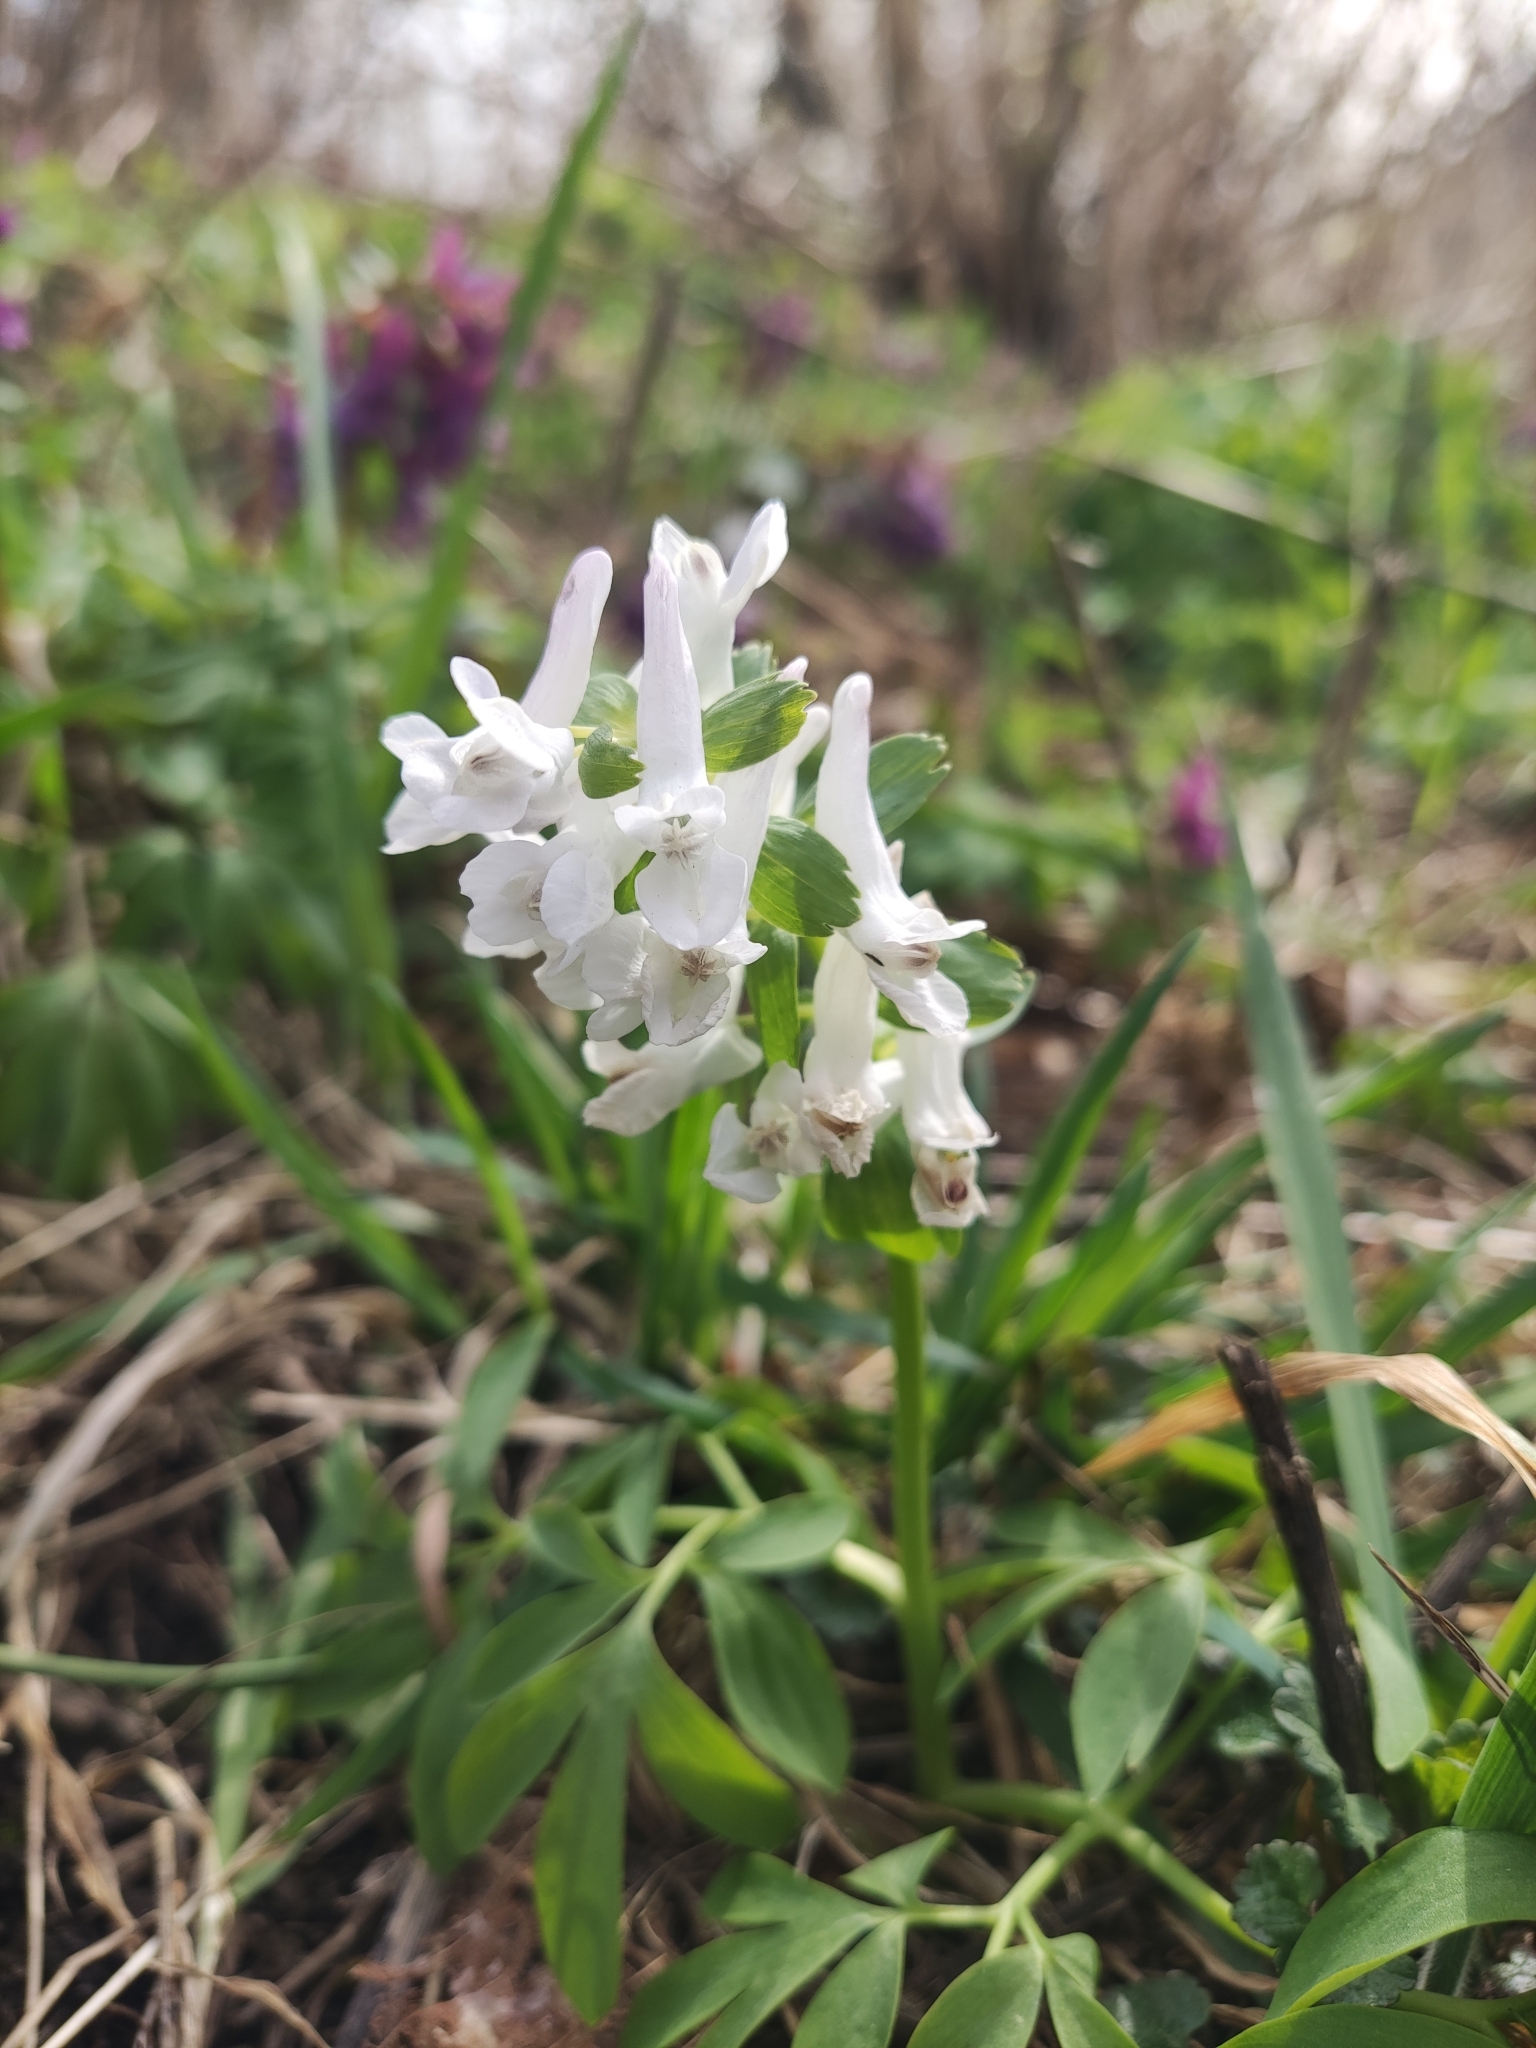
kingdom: Plantae
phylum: Tracheophyta
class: Magnoliopsida
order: Ranunculales
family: Papaveraceae
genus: Corydalis
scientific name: Corydalis solida
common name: Bird-in-a-bush
